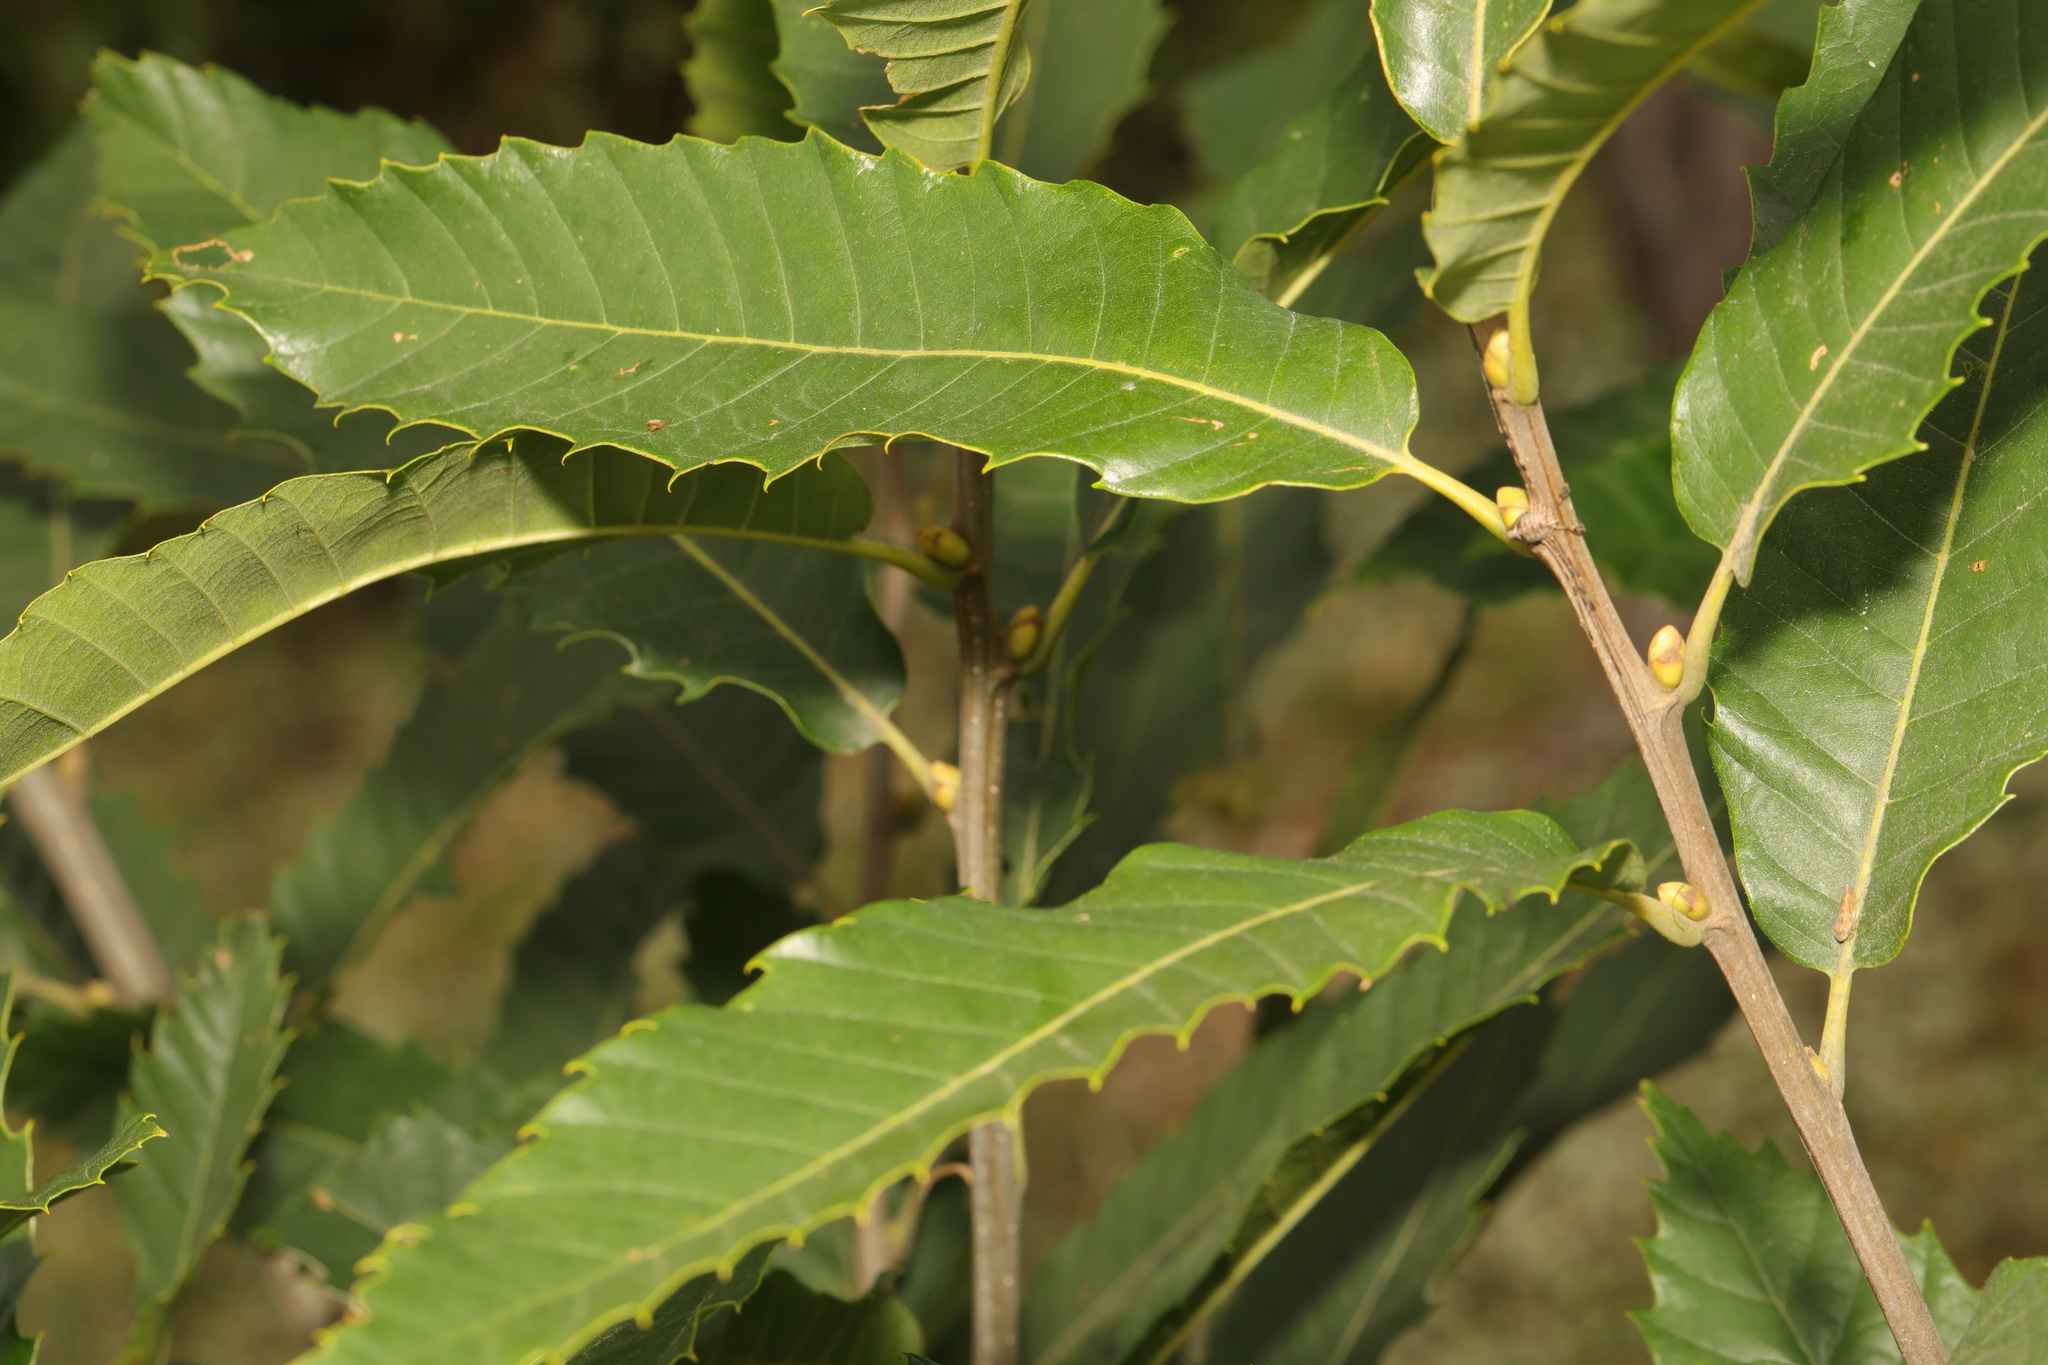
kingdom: Plantae
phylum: Tracheophyta
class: Magnoliopsida
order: Fagales
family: Fagaceae
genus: Castanea
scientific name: Castanea sativa
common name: Sweet chestnut
